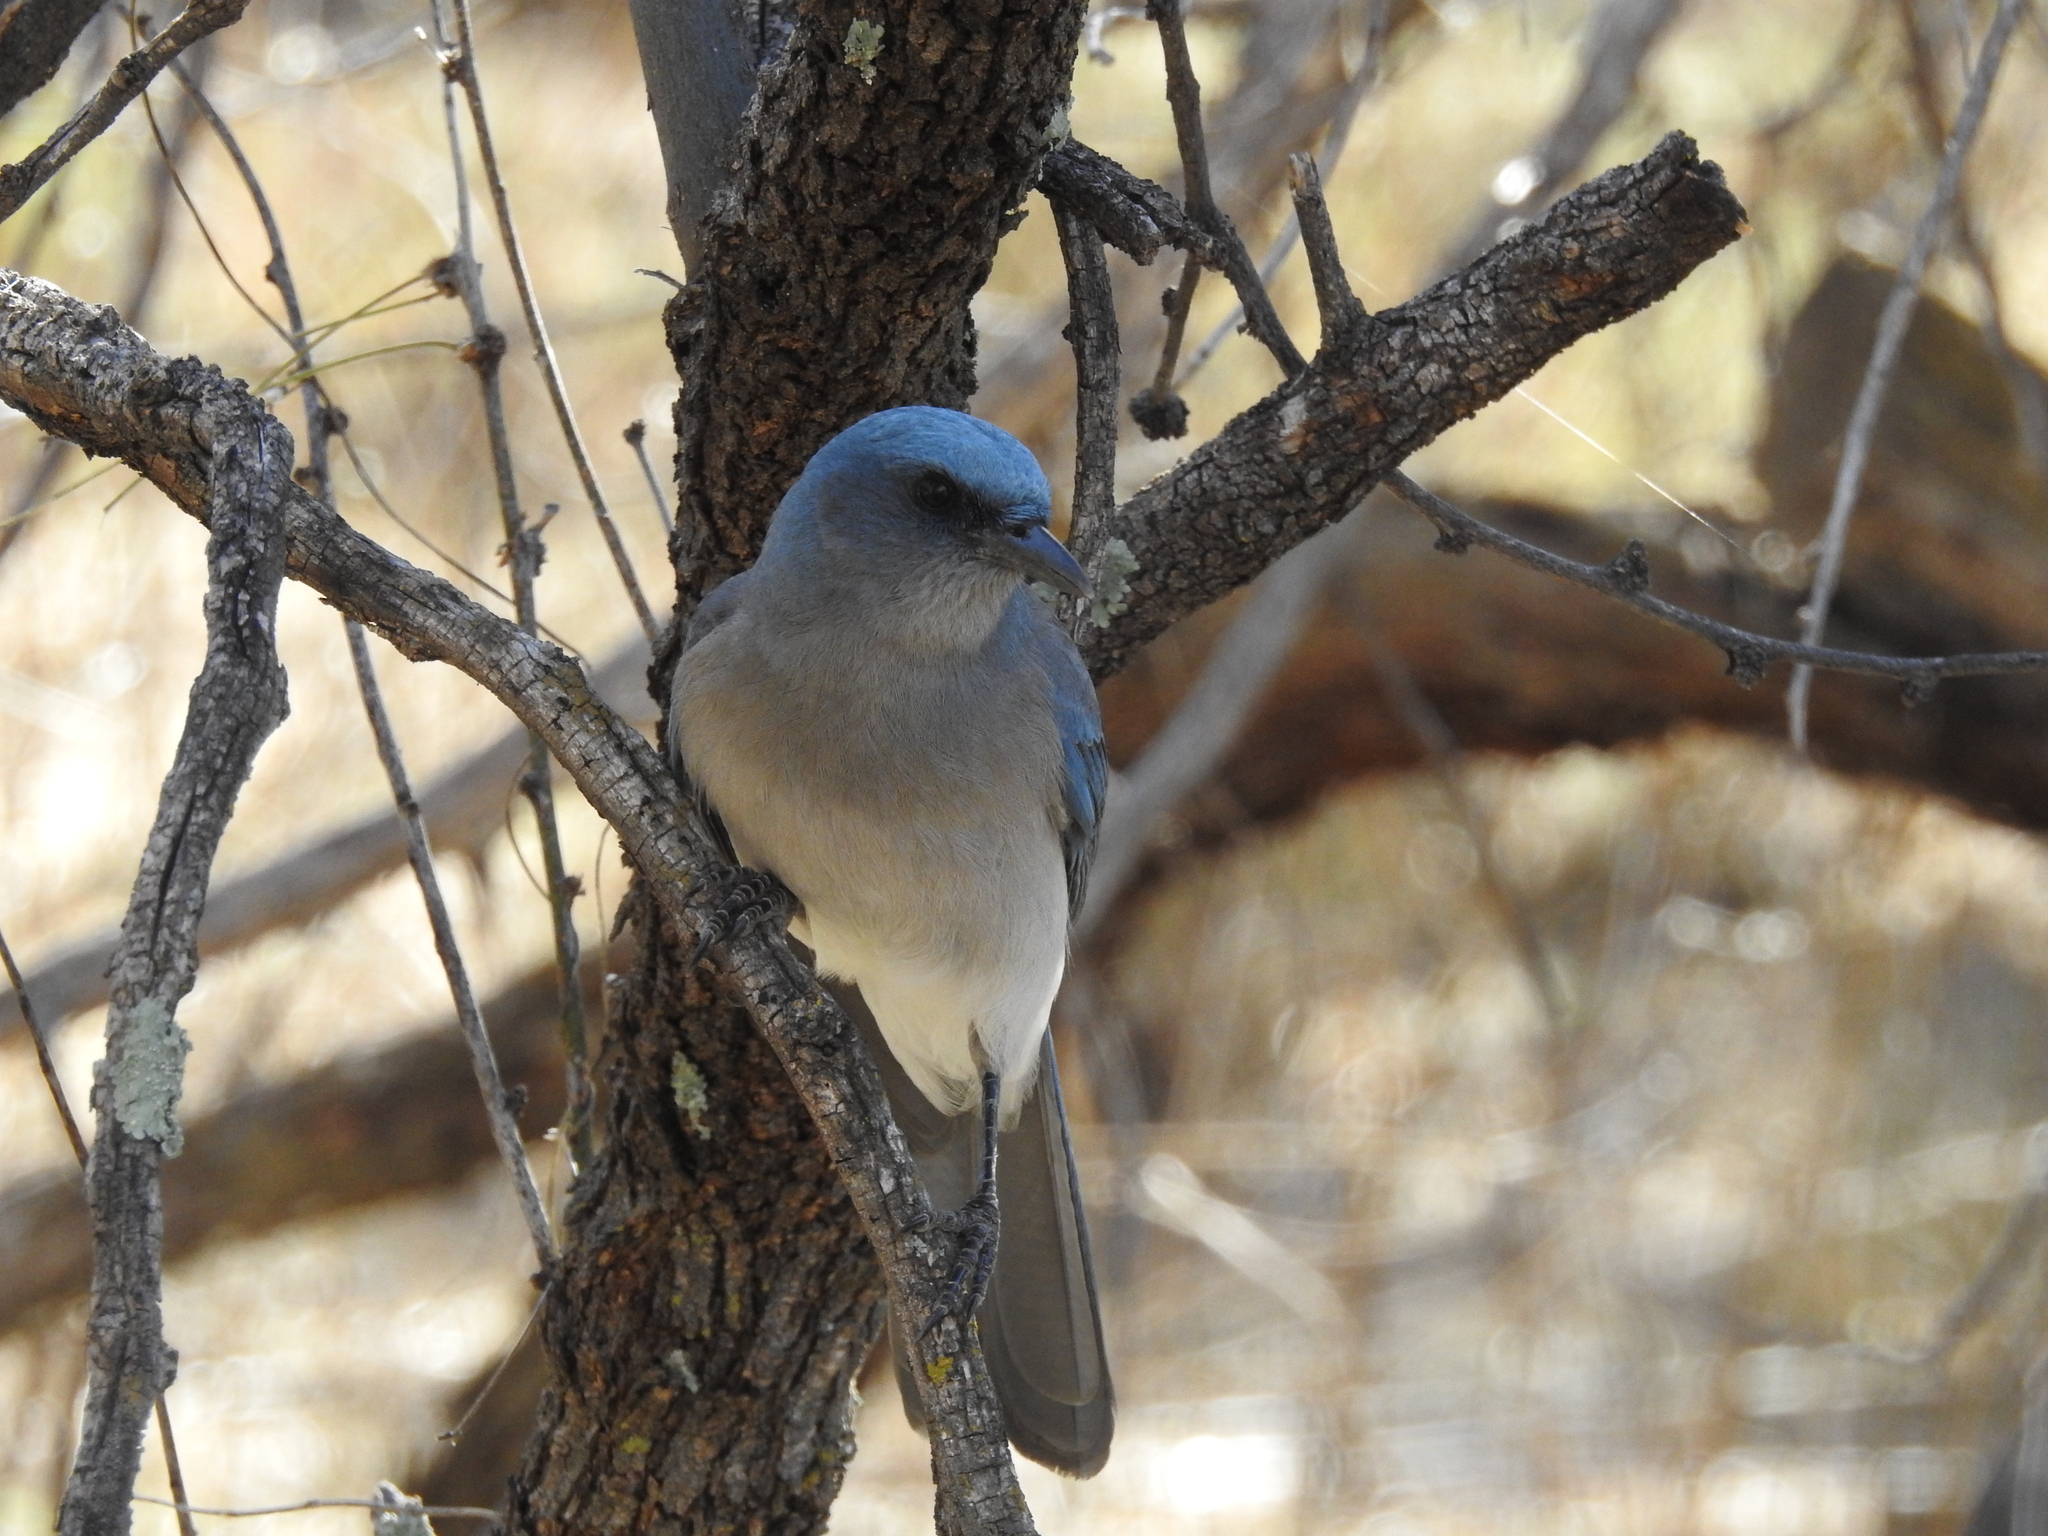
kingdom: Animalia
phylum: Chordata
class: Aves
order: Passeriformes
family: Corvidae
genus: Aphelocoma
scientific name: Aphelocoma wollweberi
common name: Mexican jay
